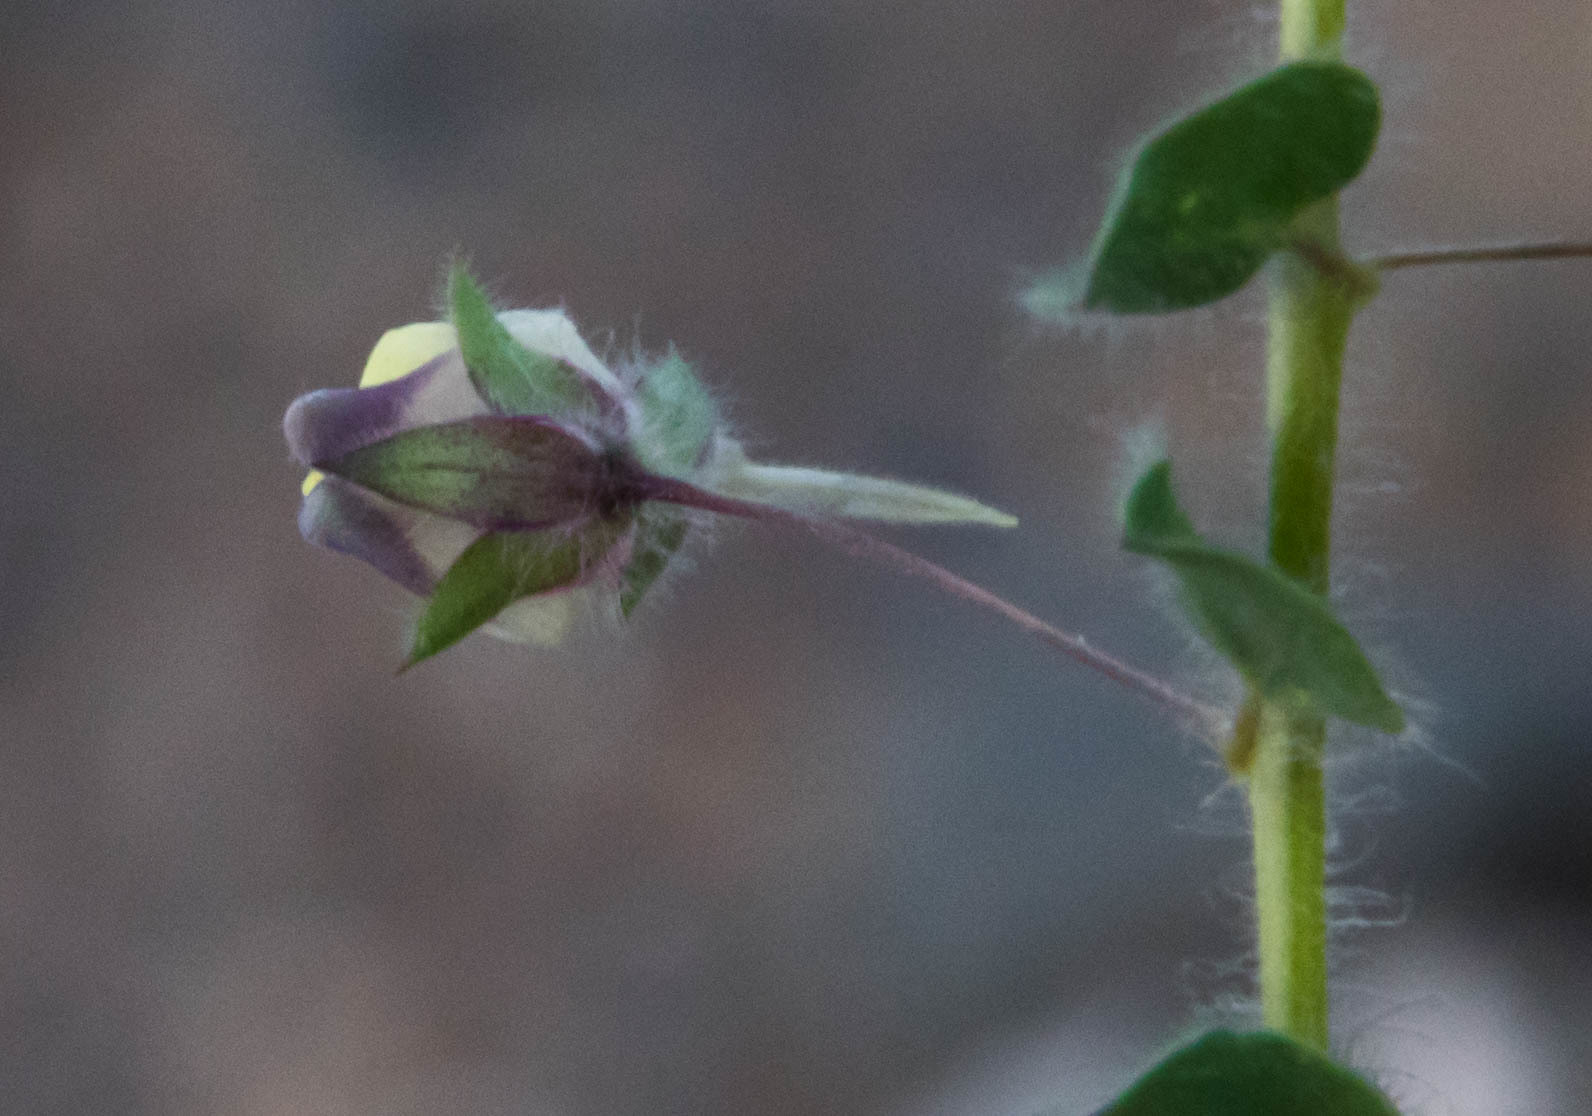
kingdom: Plantae
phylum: Tracheophyta
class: Magnoliopsida
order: Lamiales
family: Plantaginaceae
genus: Kickxia
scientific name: Kickxia elatine
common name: Sharp-leaved fluellen
